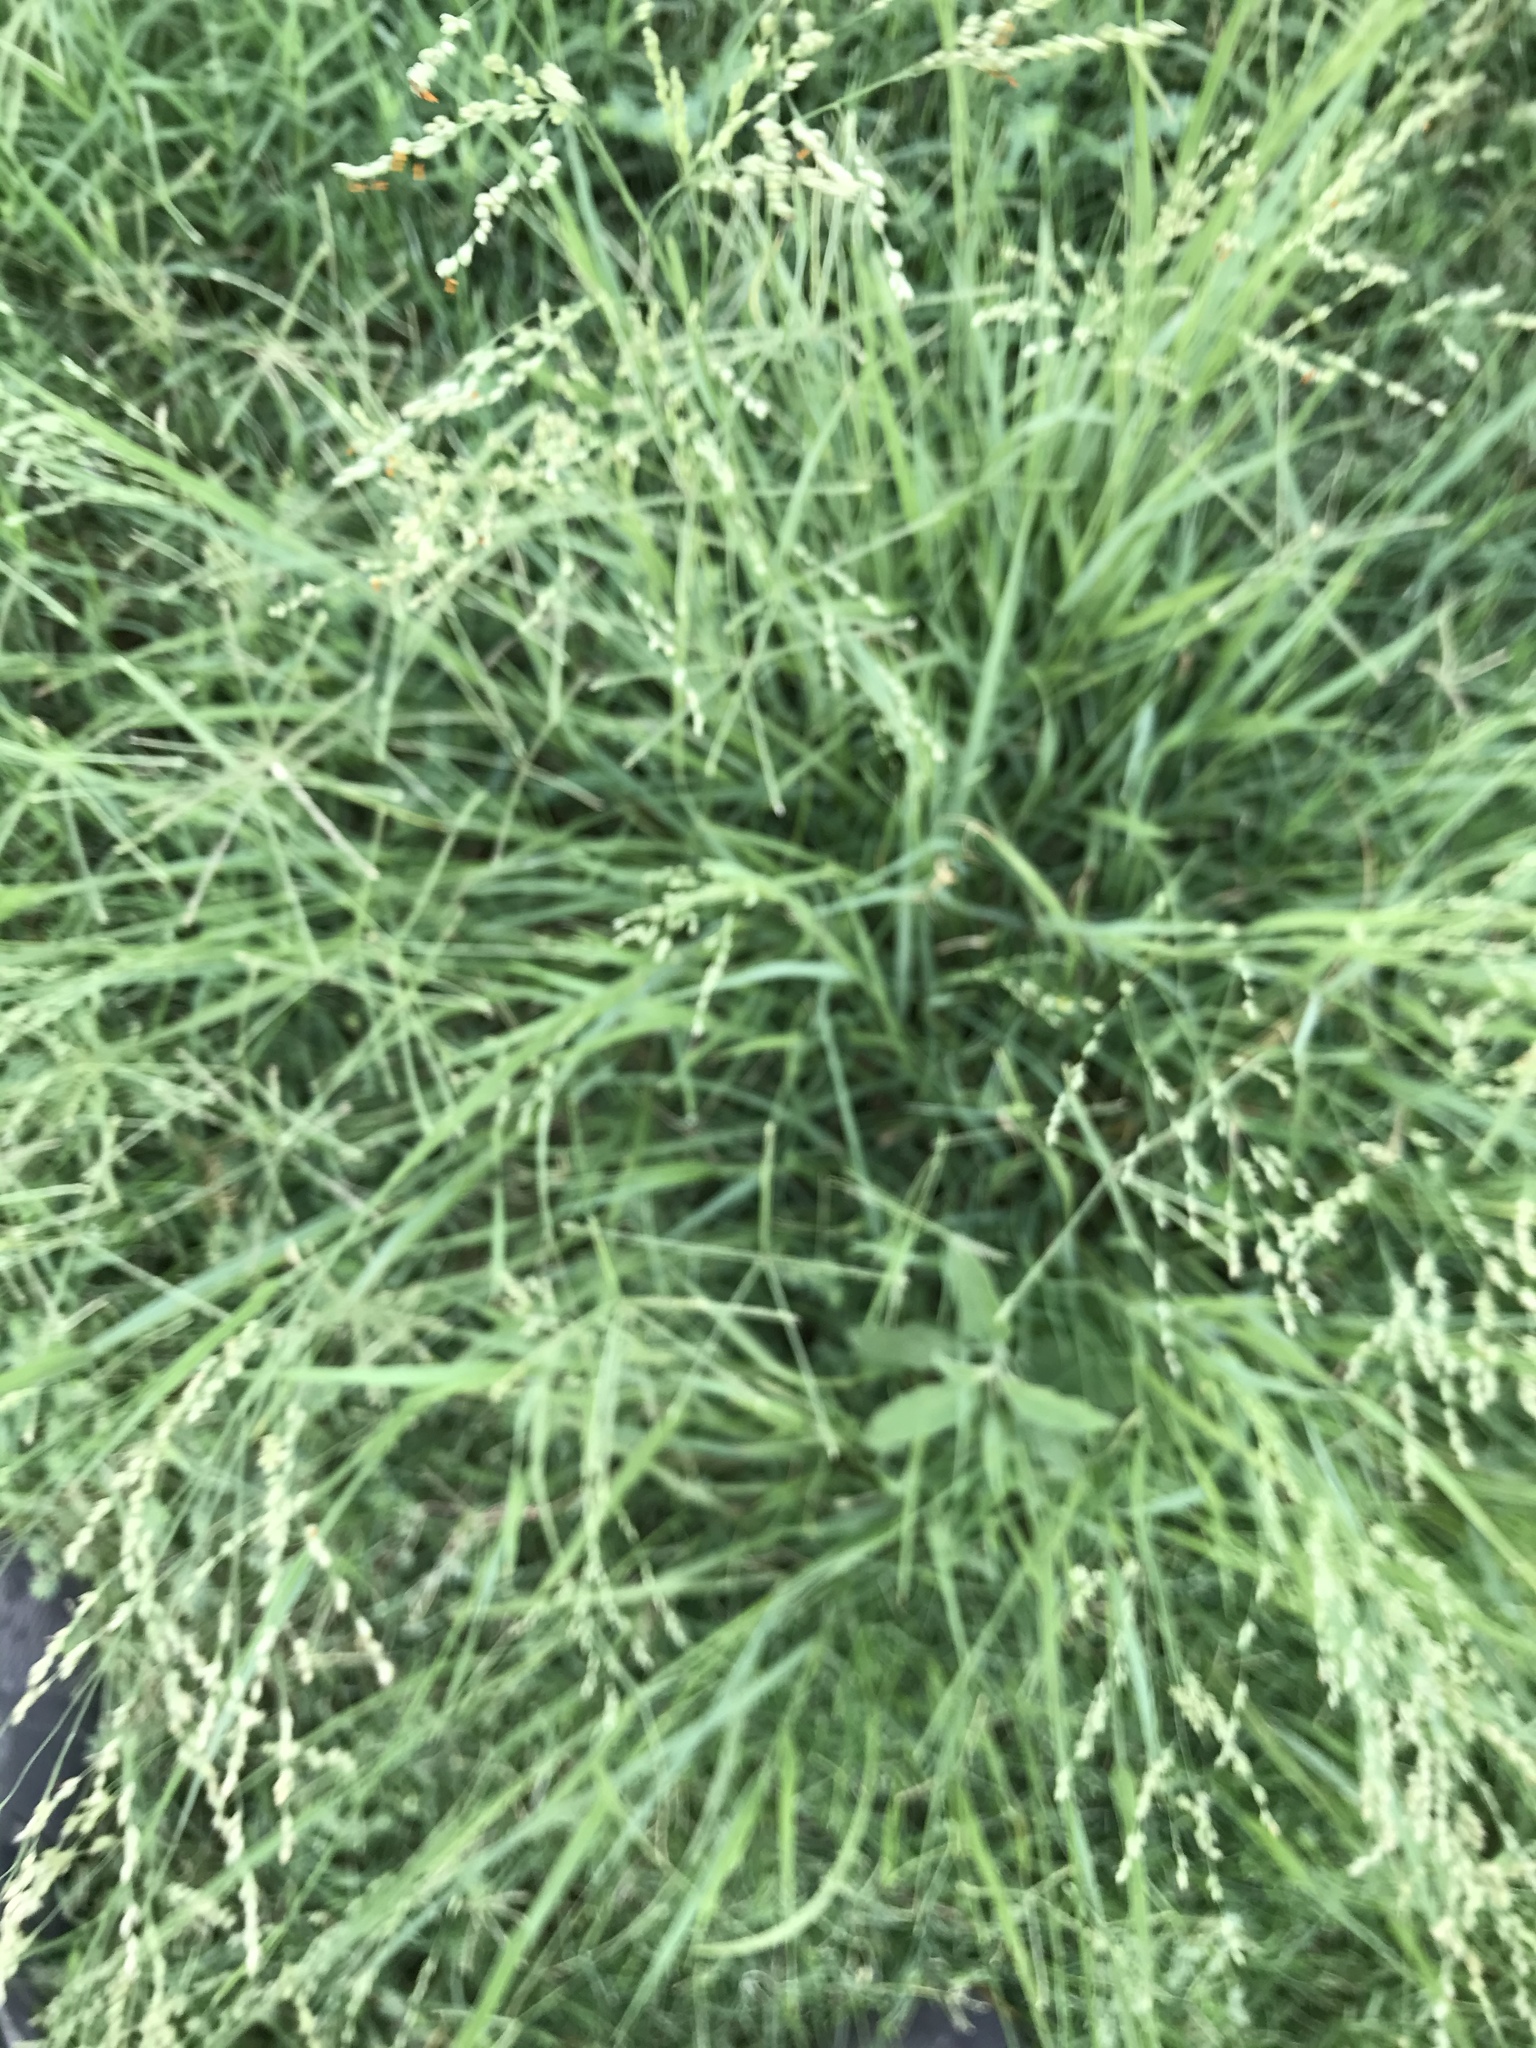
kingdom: Plantae
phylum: Tracheophyta
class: Liliopsida
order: Poales
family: Poaceae
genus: Panicum
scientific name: Panicum coloratum
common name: Kleingrass
